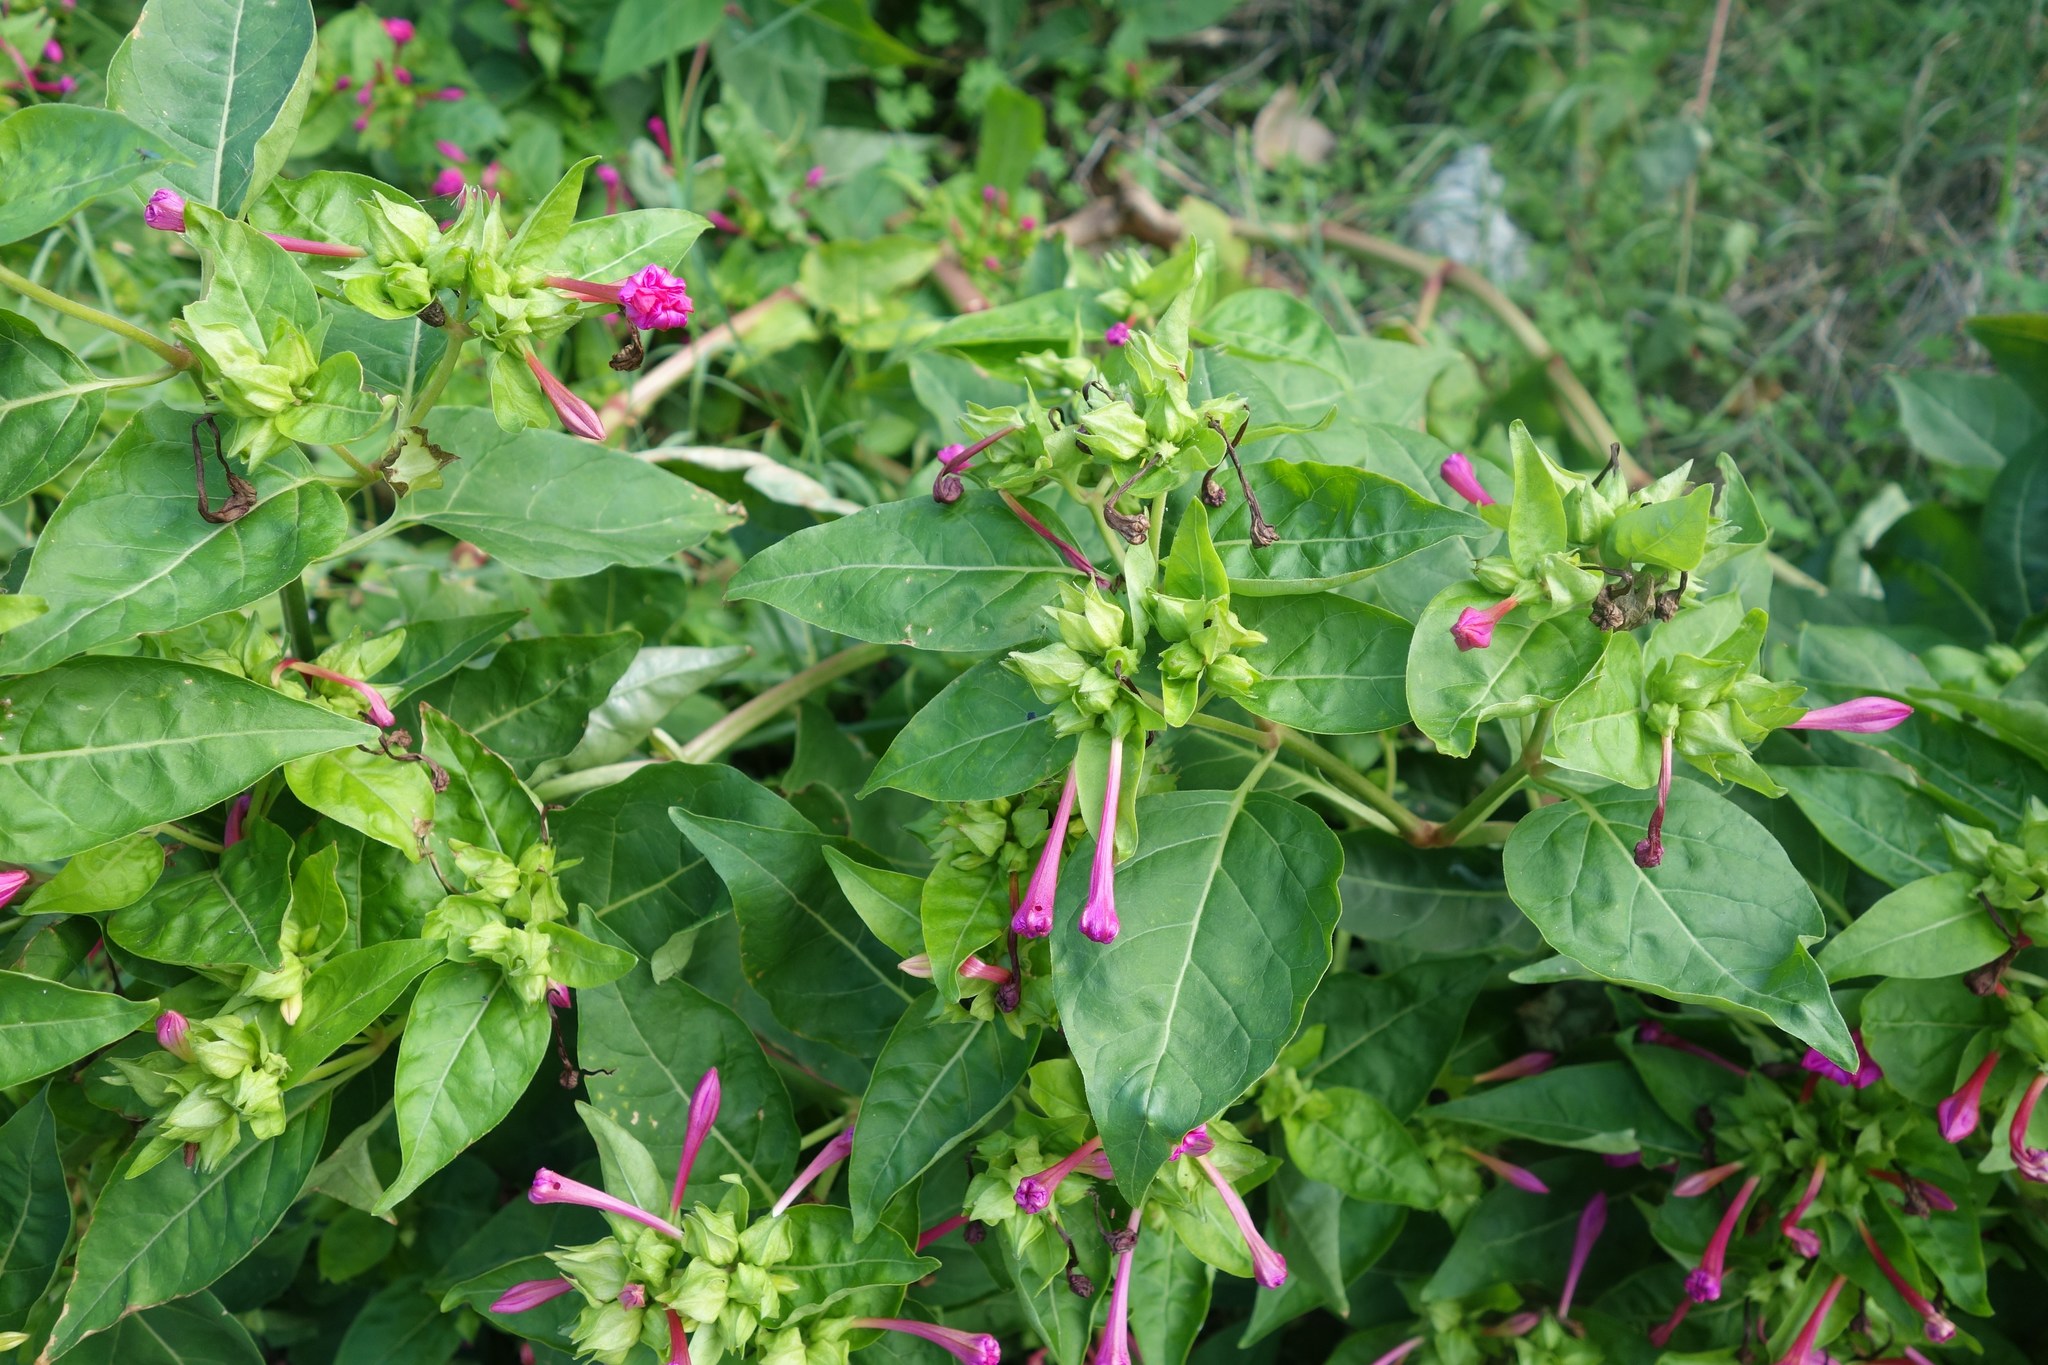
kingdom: Plantae
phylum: Tracheophyta
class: Magnoliopsida
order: Caryophyllales
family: Nyctaginaceae
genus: Mirabilis
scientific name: Mirabilis jalapa
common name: Marvel-of-peru
